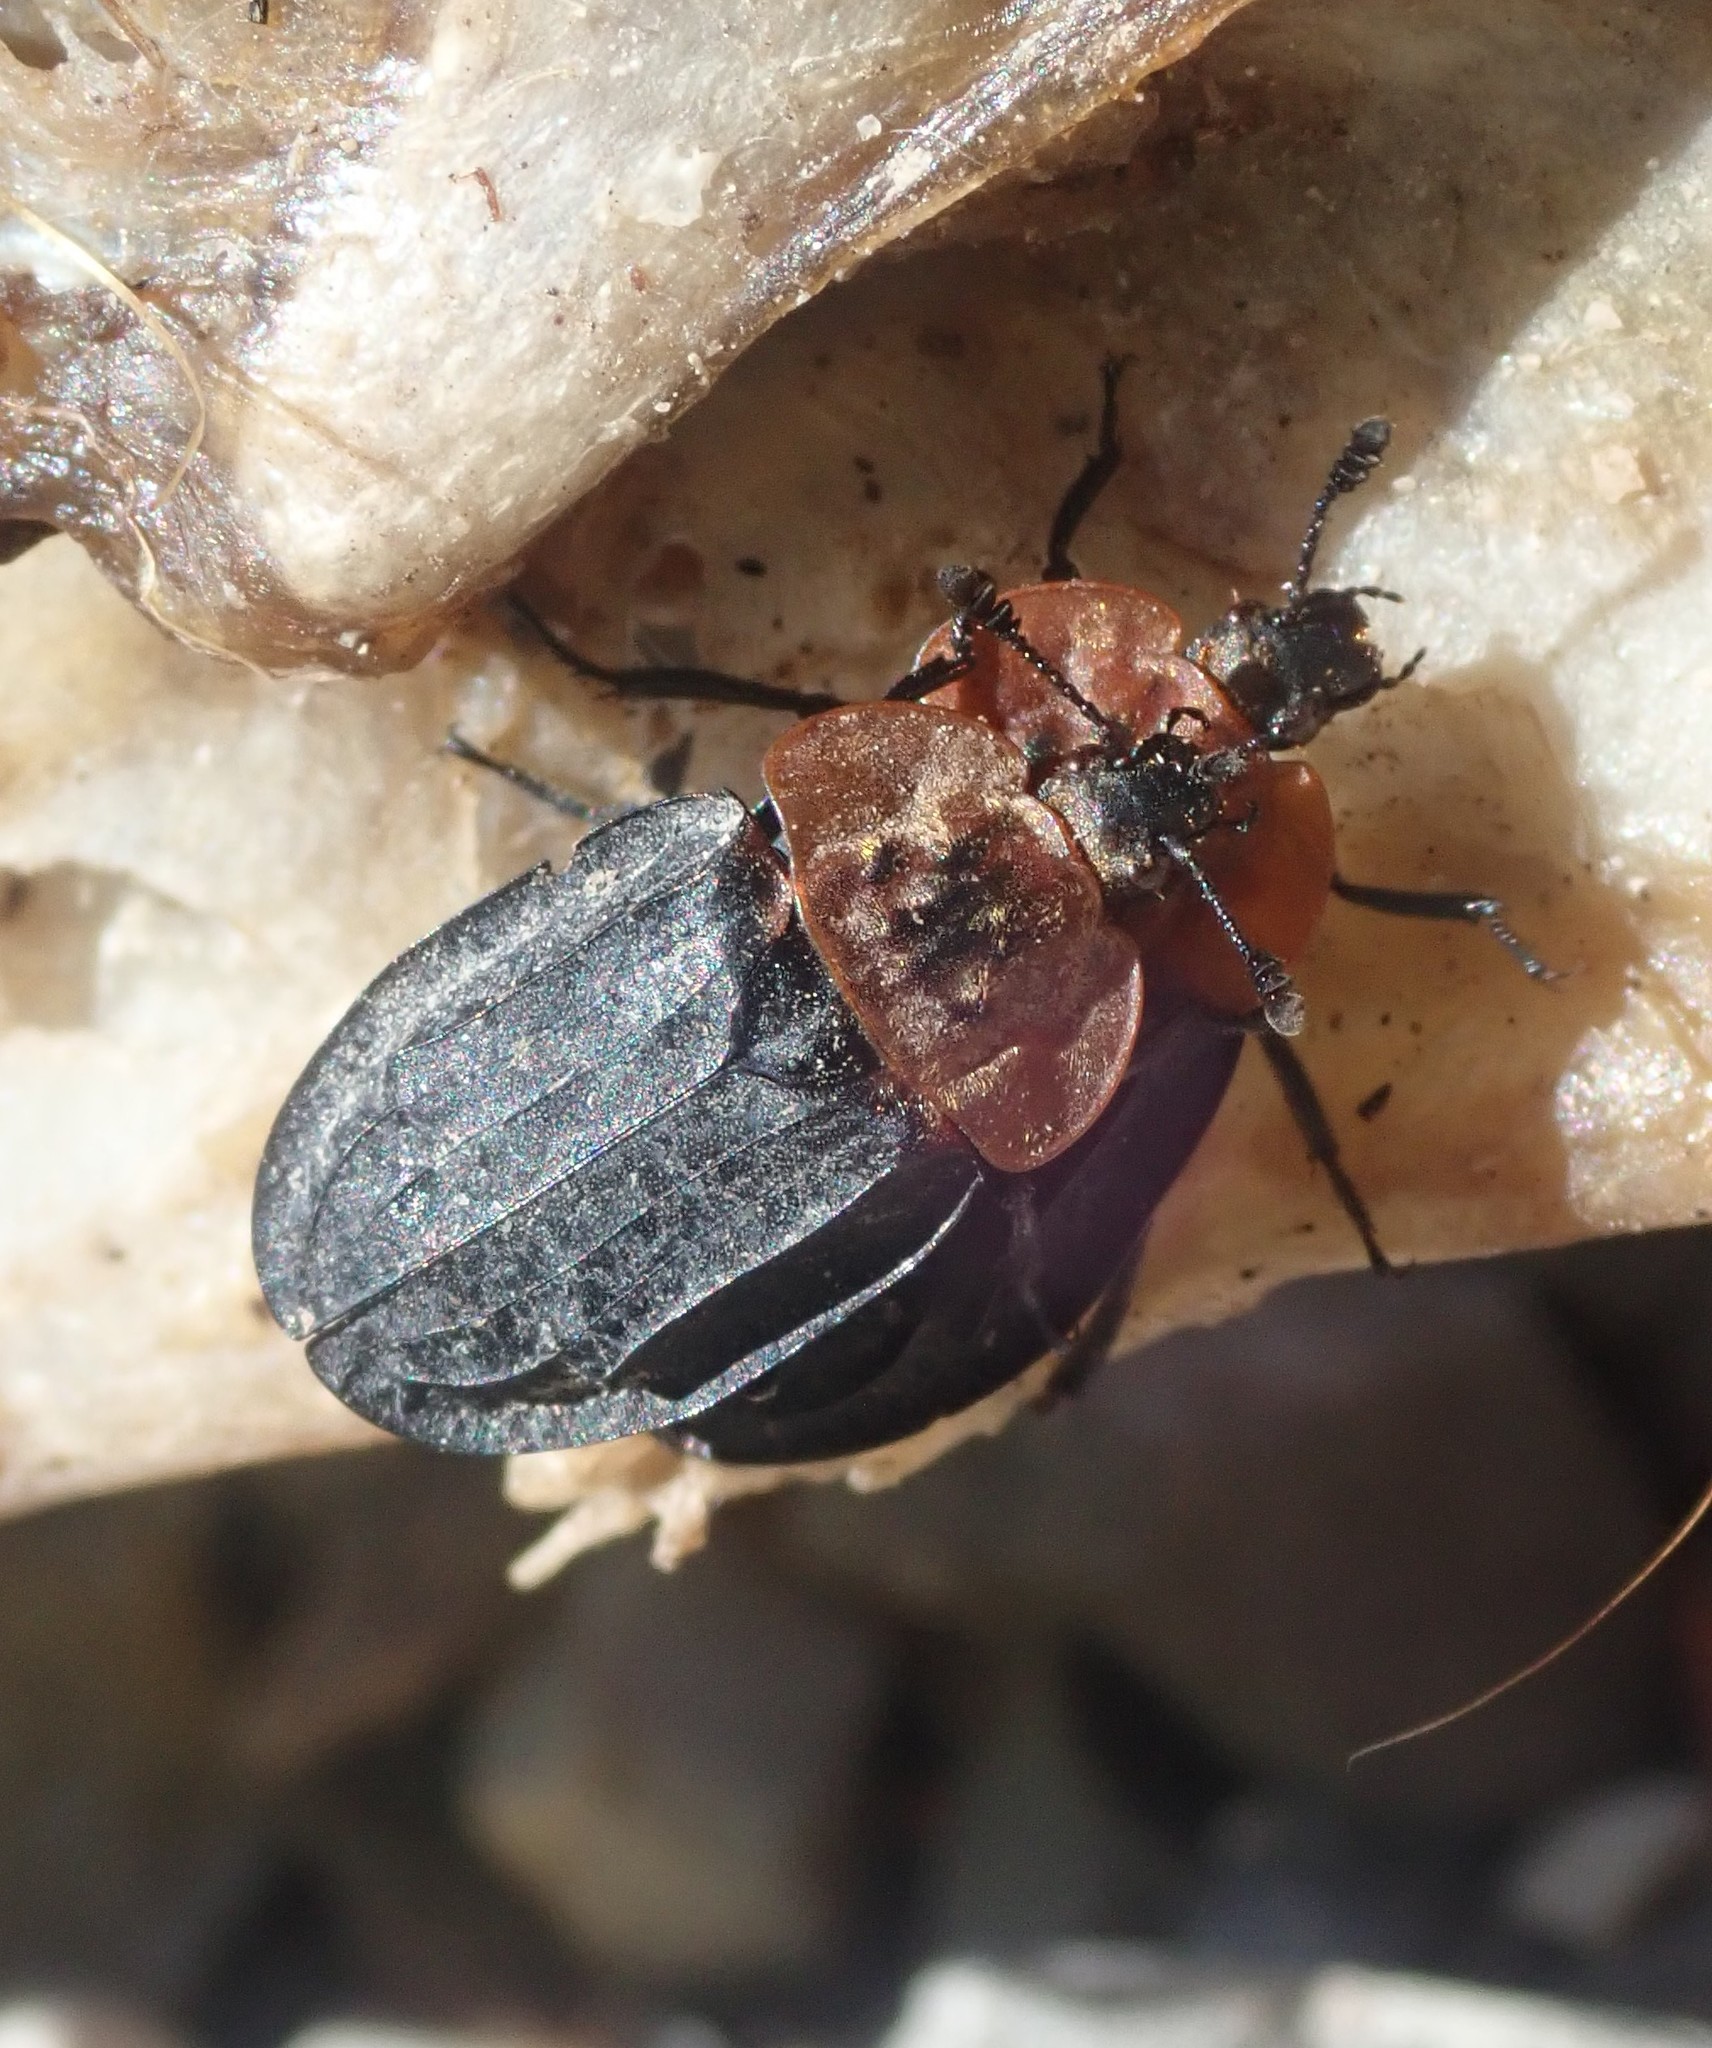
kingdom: Animalia
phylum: Arthropoda
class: Insecta
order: Coleoptera
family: Staphylinidae
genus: Oiceoptoma
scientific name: Oiceoptoma thoracicum
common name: Red-breasted carrion beetle
